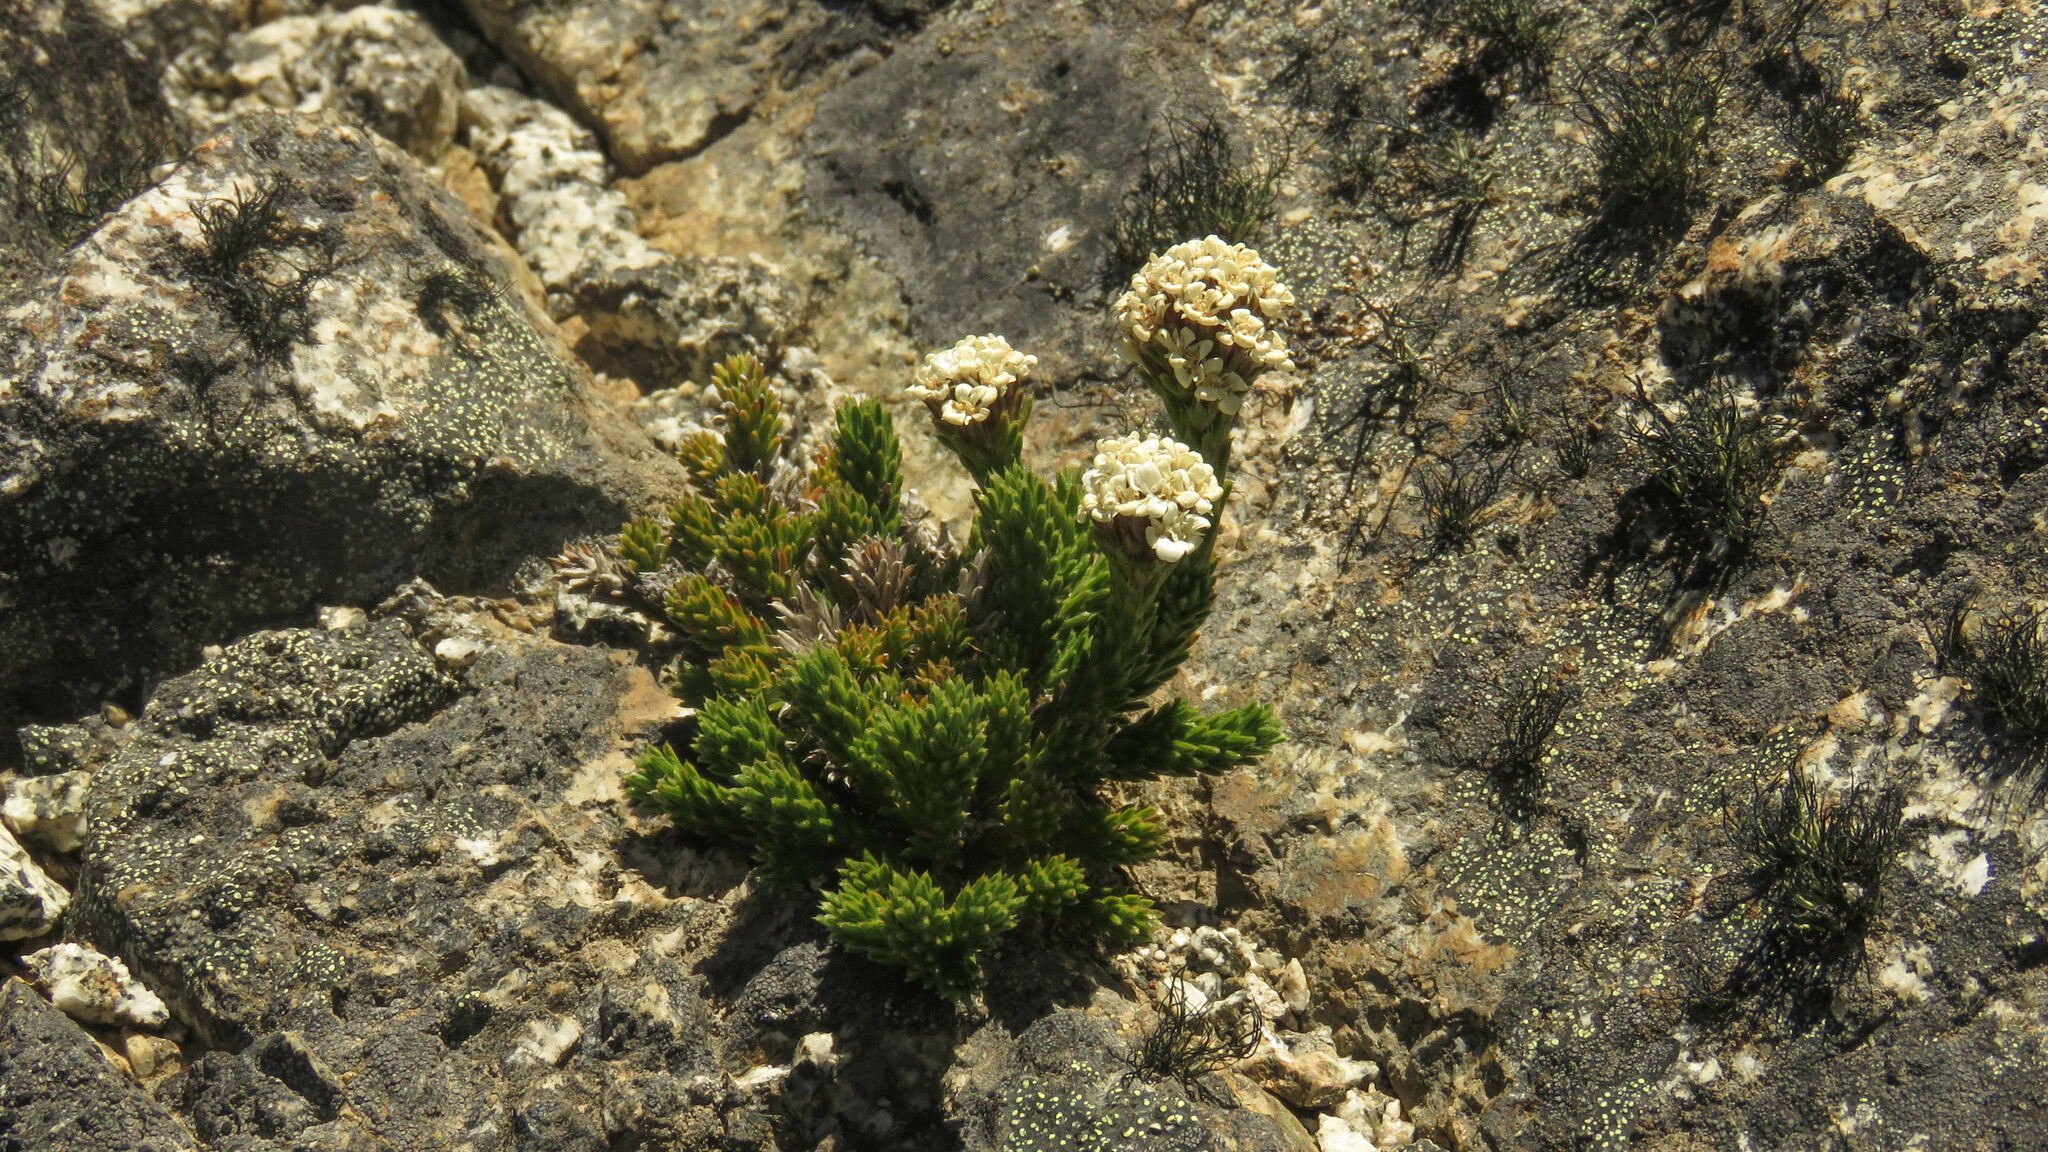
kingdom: Plantae
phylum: Tracheophyta
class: Magnoliopsida
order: Asterales
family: Asteraceae
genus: Nassauvia
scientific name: Nassauvia pygmaea
